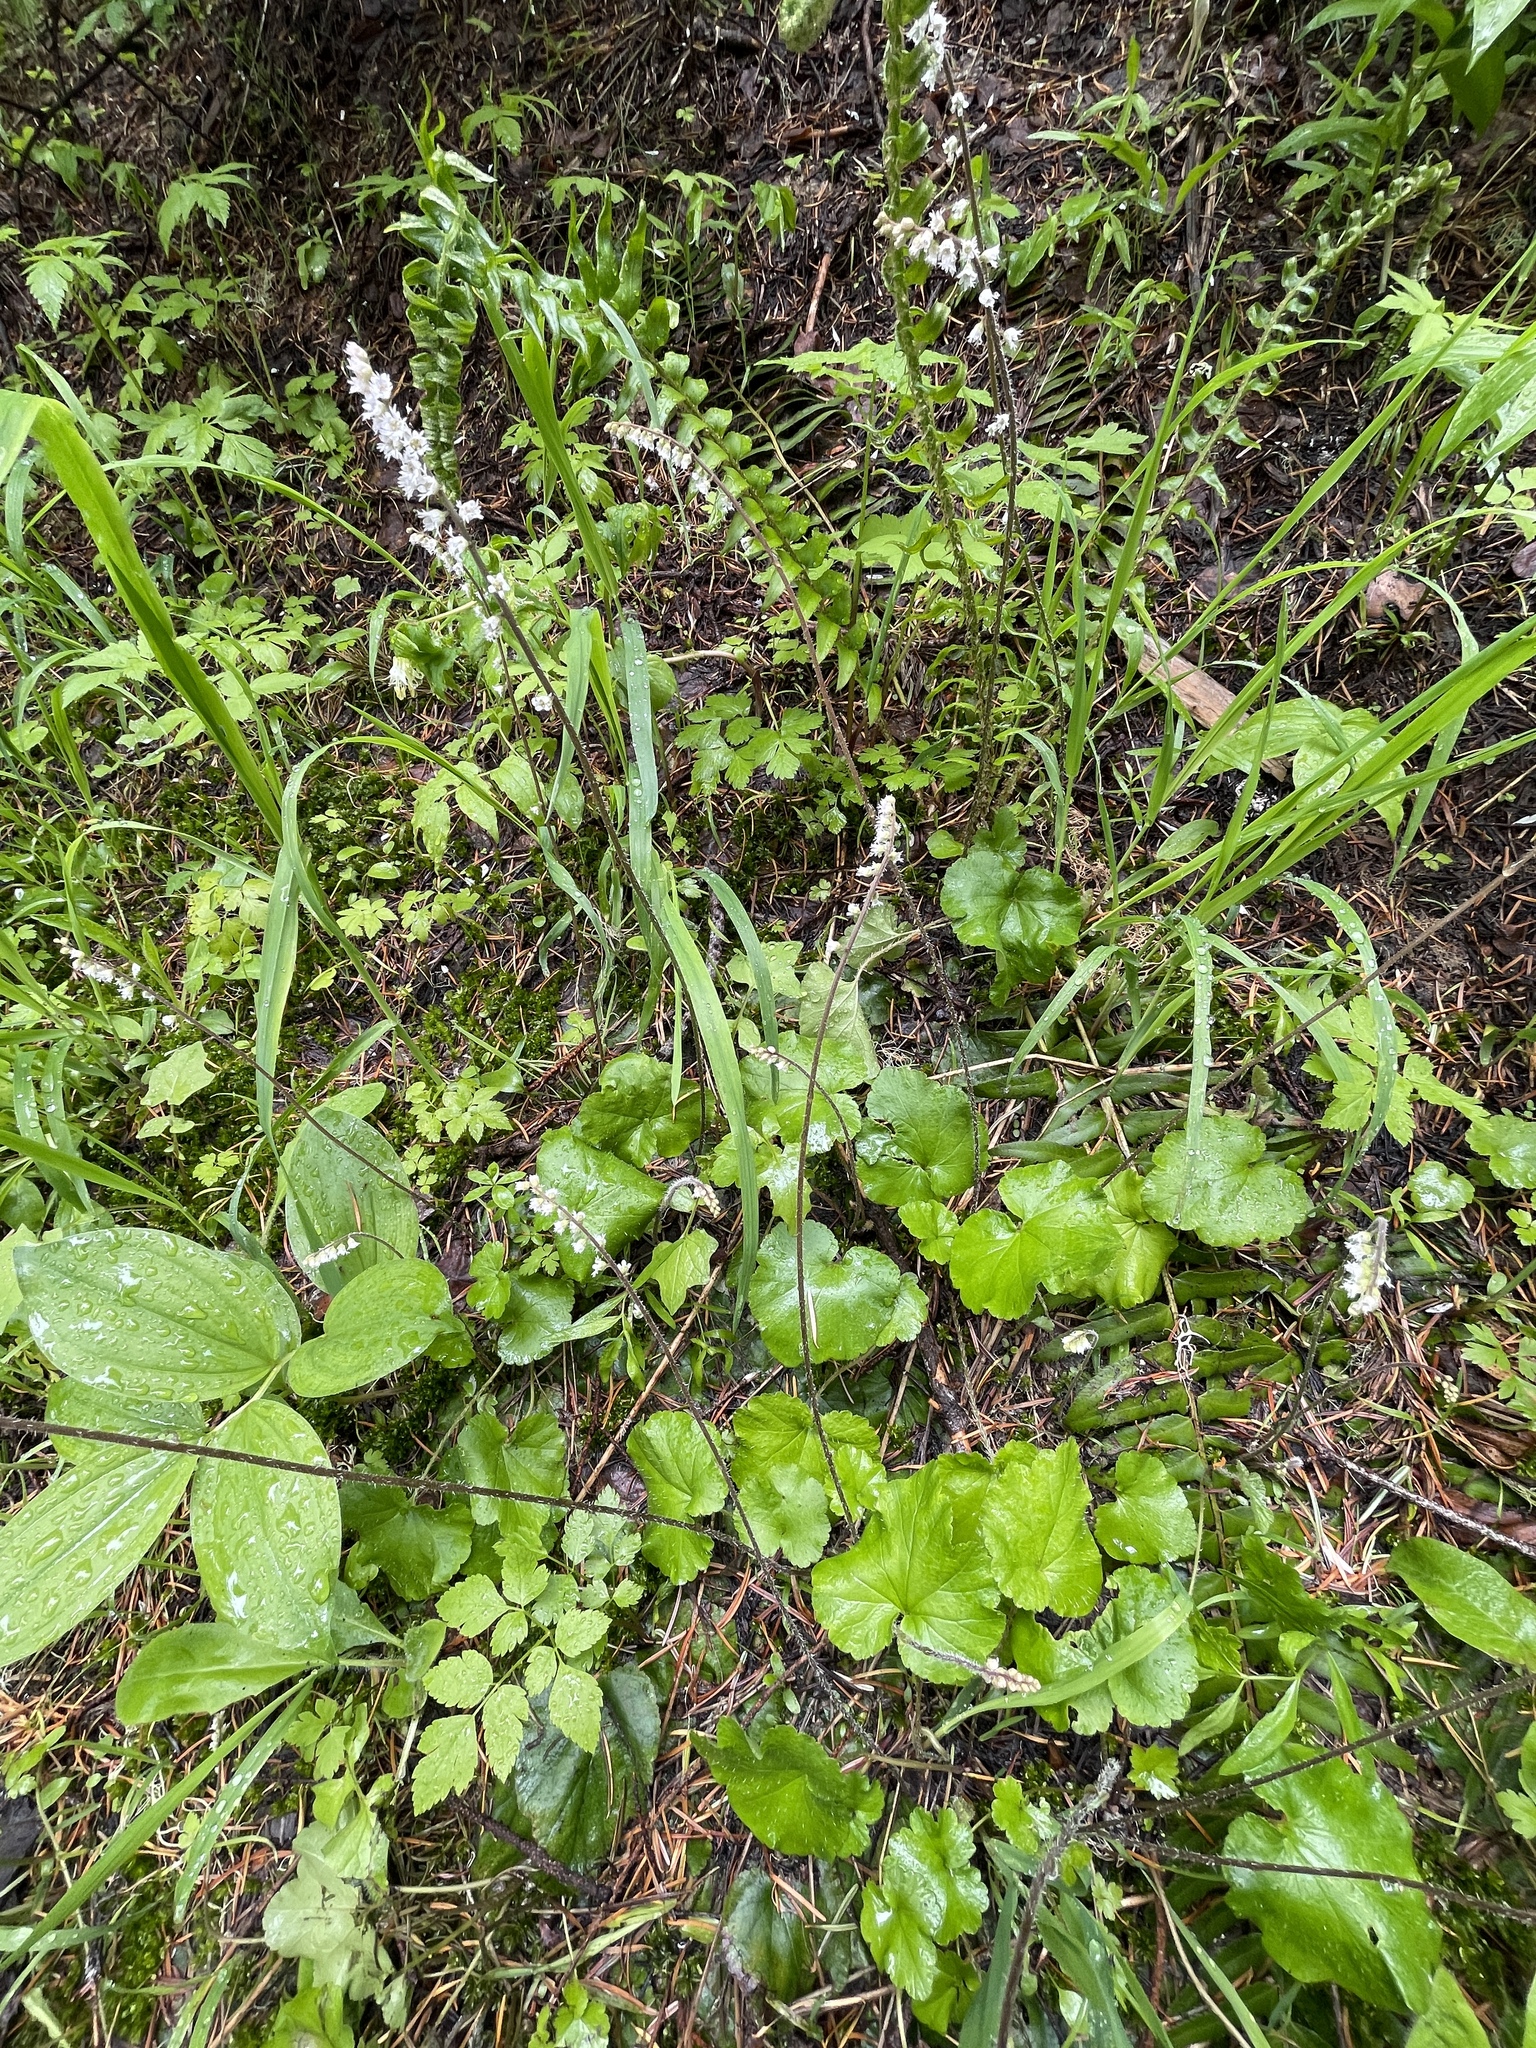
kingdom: Plantae
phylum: Tracheophyta
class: Magnoliopsida
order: Saxifragales
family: Saxifragaceae
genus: Ozomelis
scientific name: Ozomelis trifida
